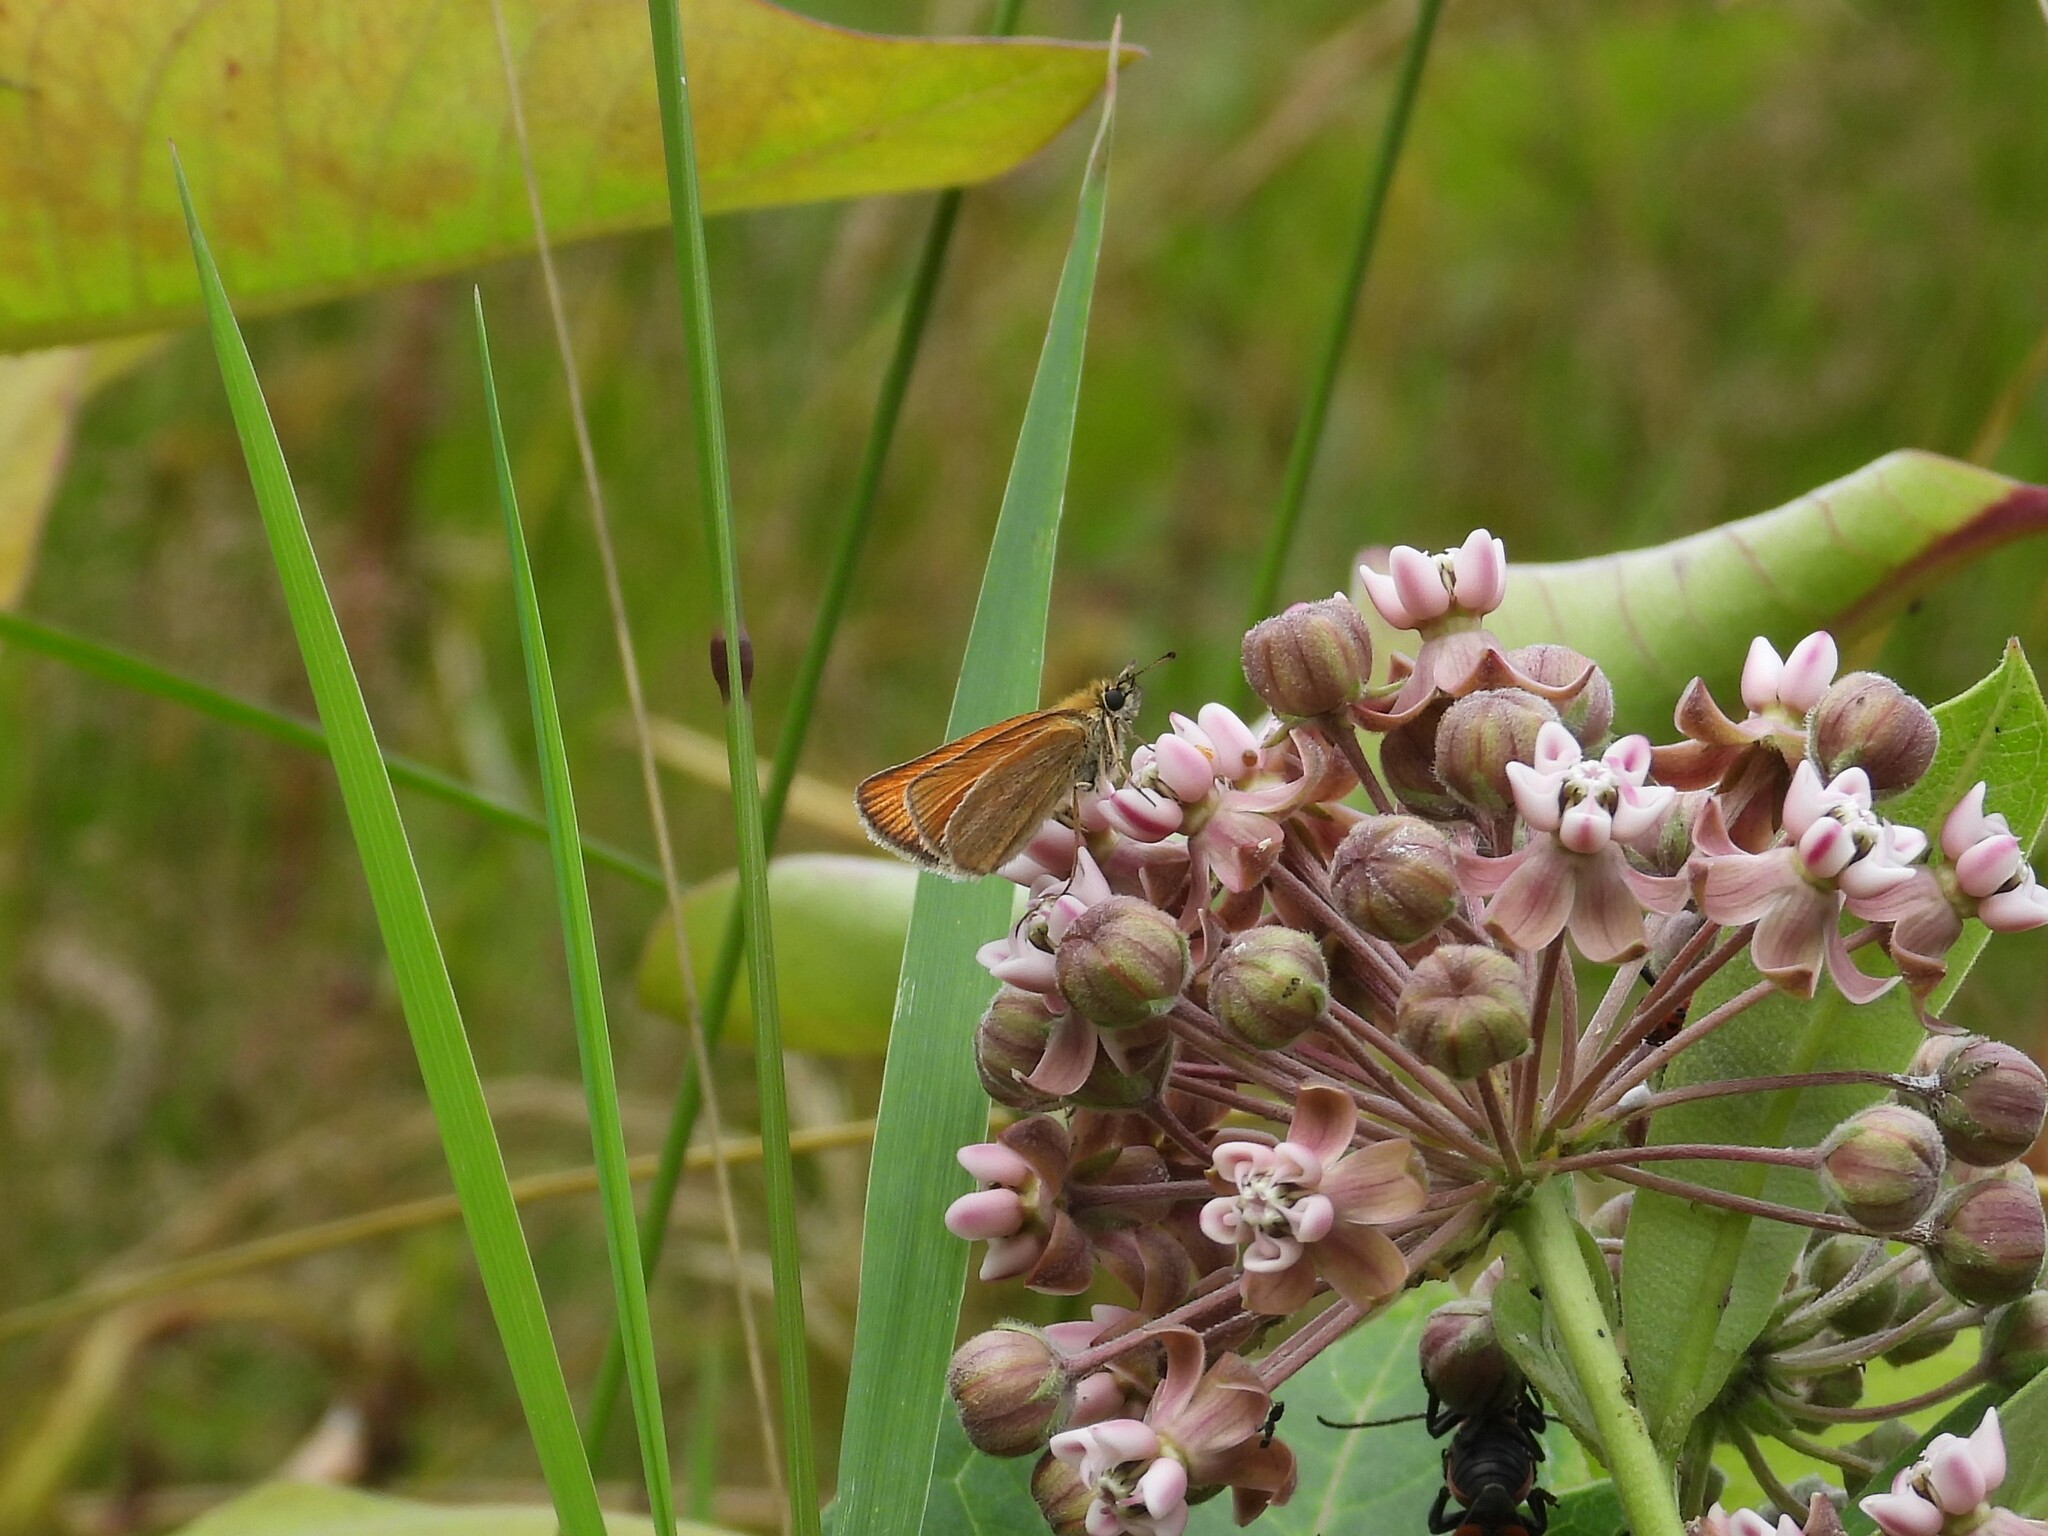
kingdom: Animalia
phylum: Arthropoda
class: Insecta
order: Lepidoptera
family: Hesperiidae
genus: Thymelicus
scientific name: Thymelicus lineola
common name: Essex skipper
